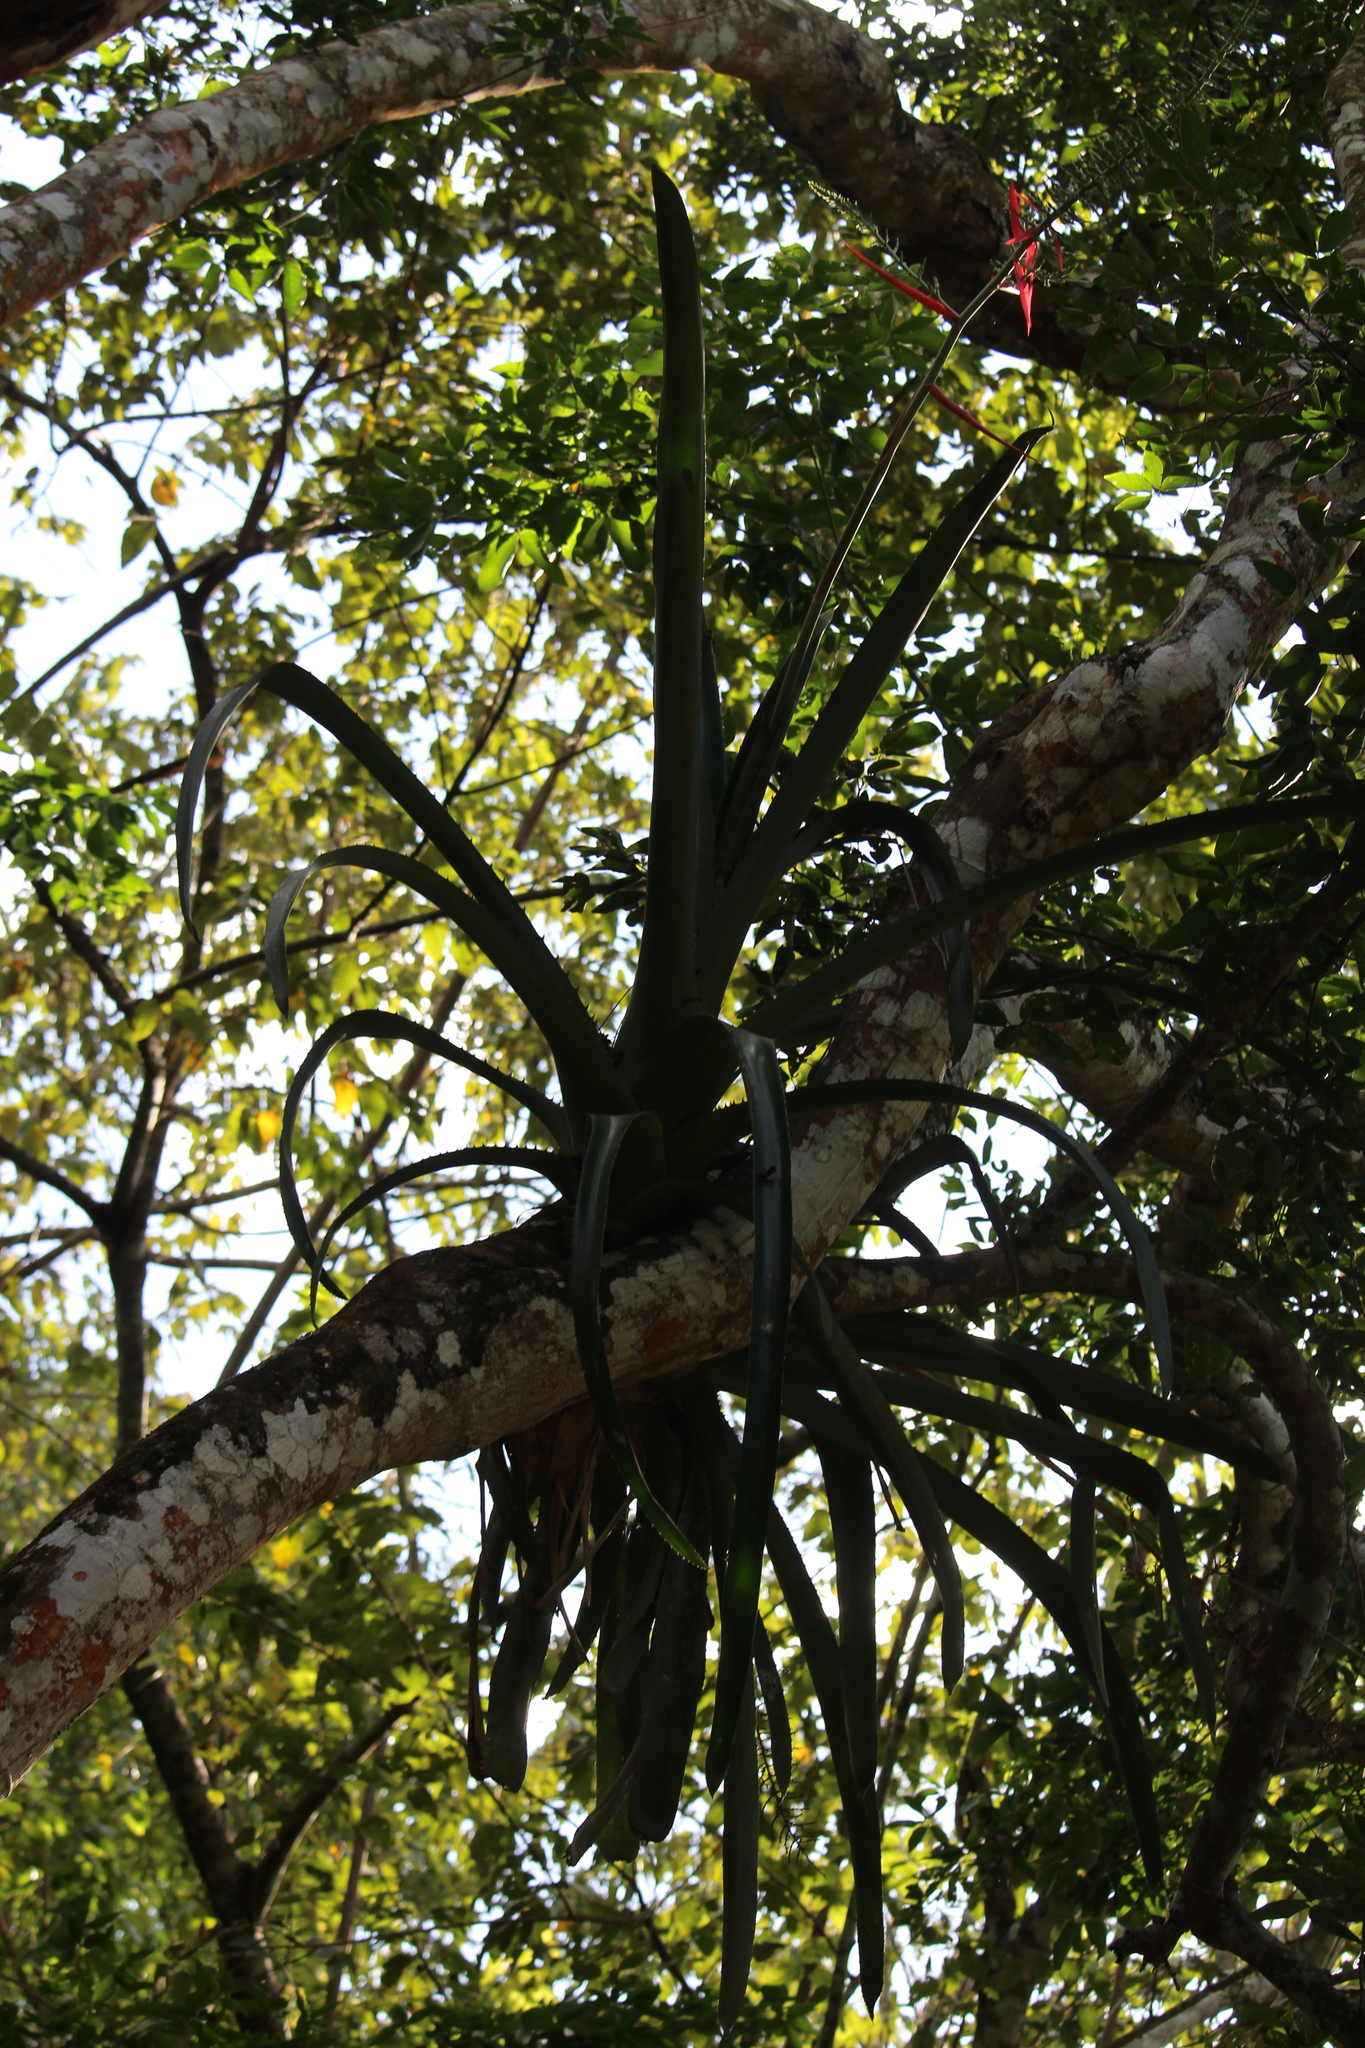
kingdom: Plantae
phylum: Tracheophyta
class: Liliopsida
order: Poales
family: Bromeliaceae
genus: Aechmea
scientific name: Aechmea bracteata
